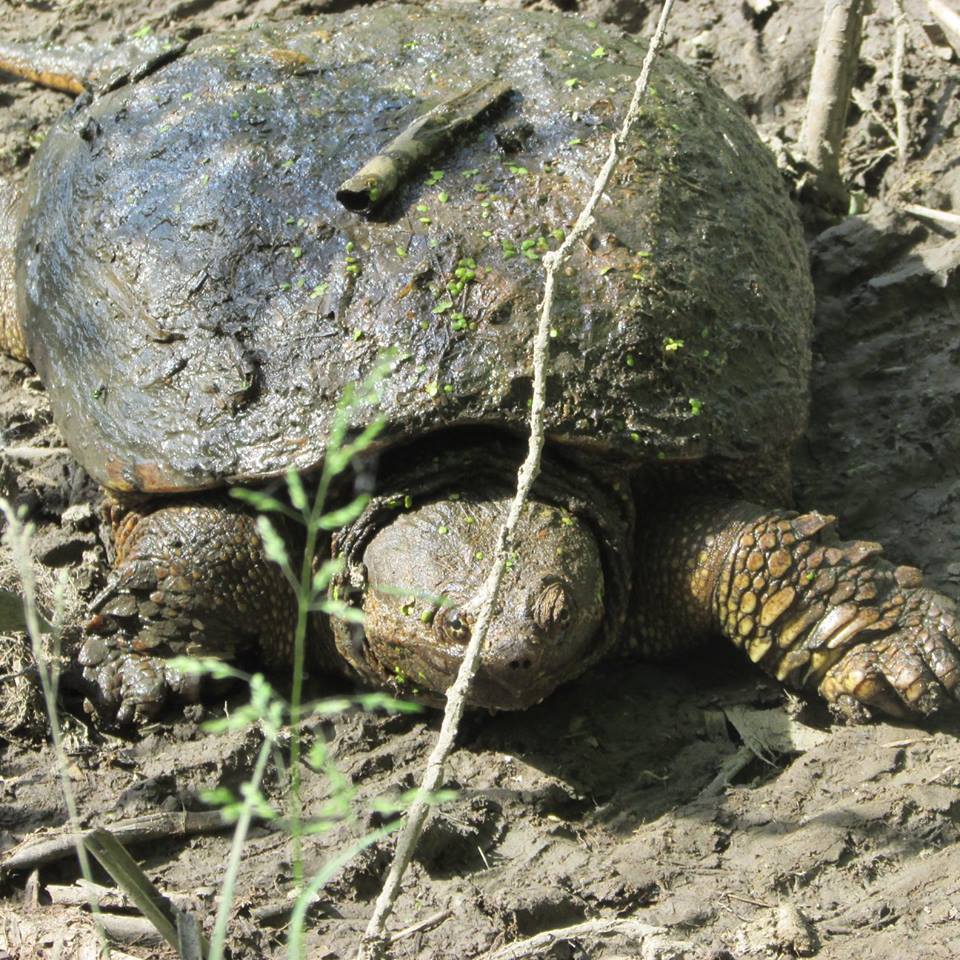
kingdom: Animalia
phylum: Chordata
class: Testudines
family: Chelydridae
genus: Chelydra
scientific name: Chelydra serpentina
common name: Common snapping turtle
